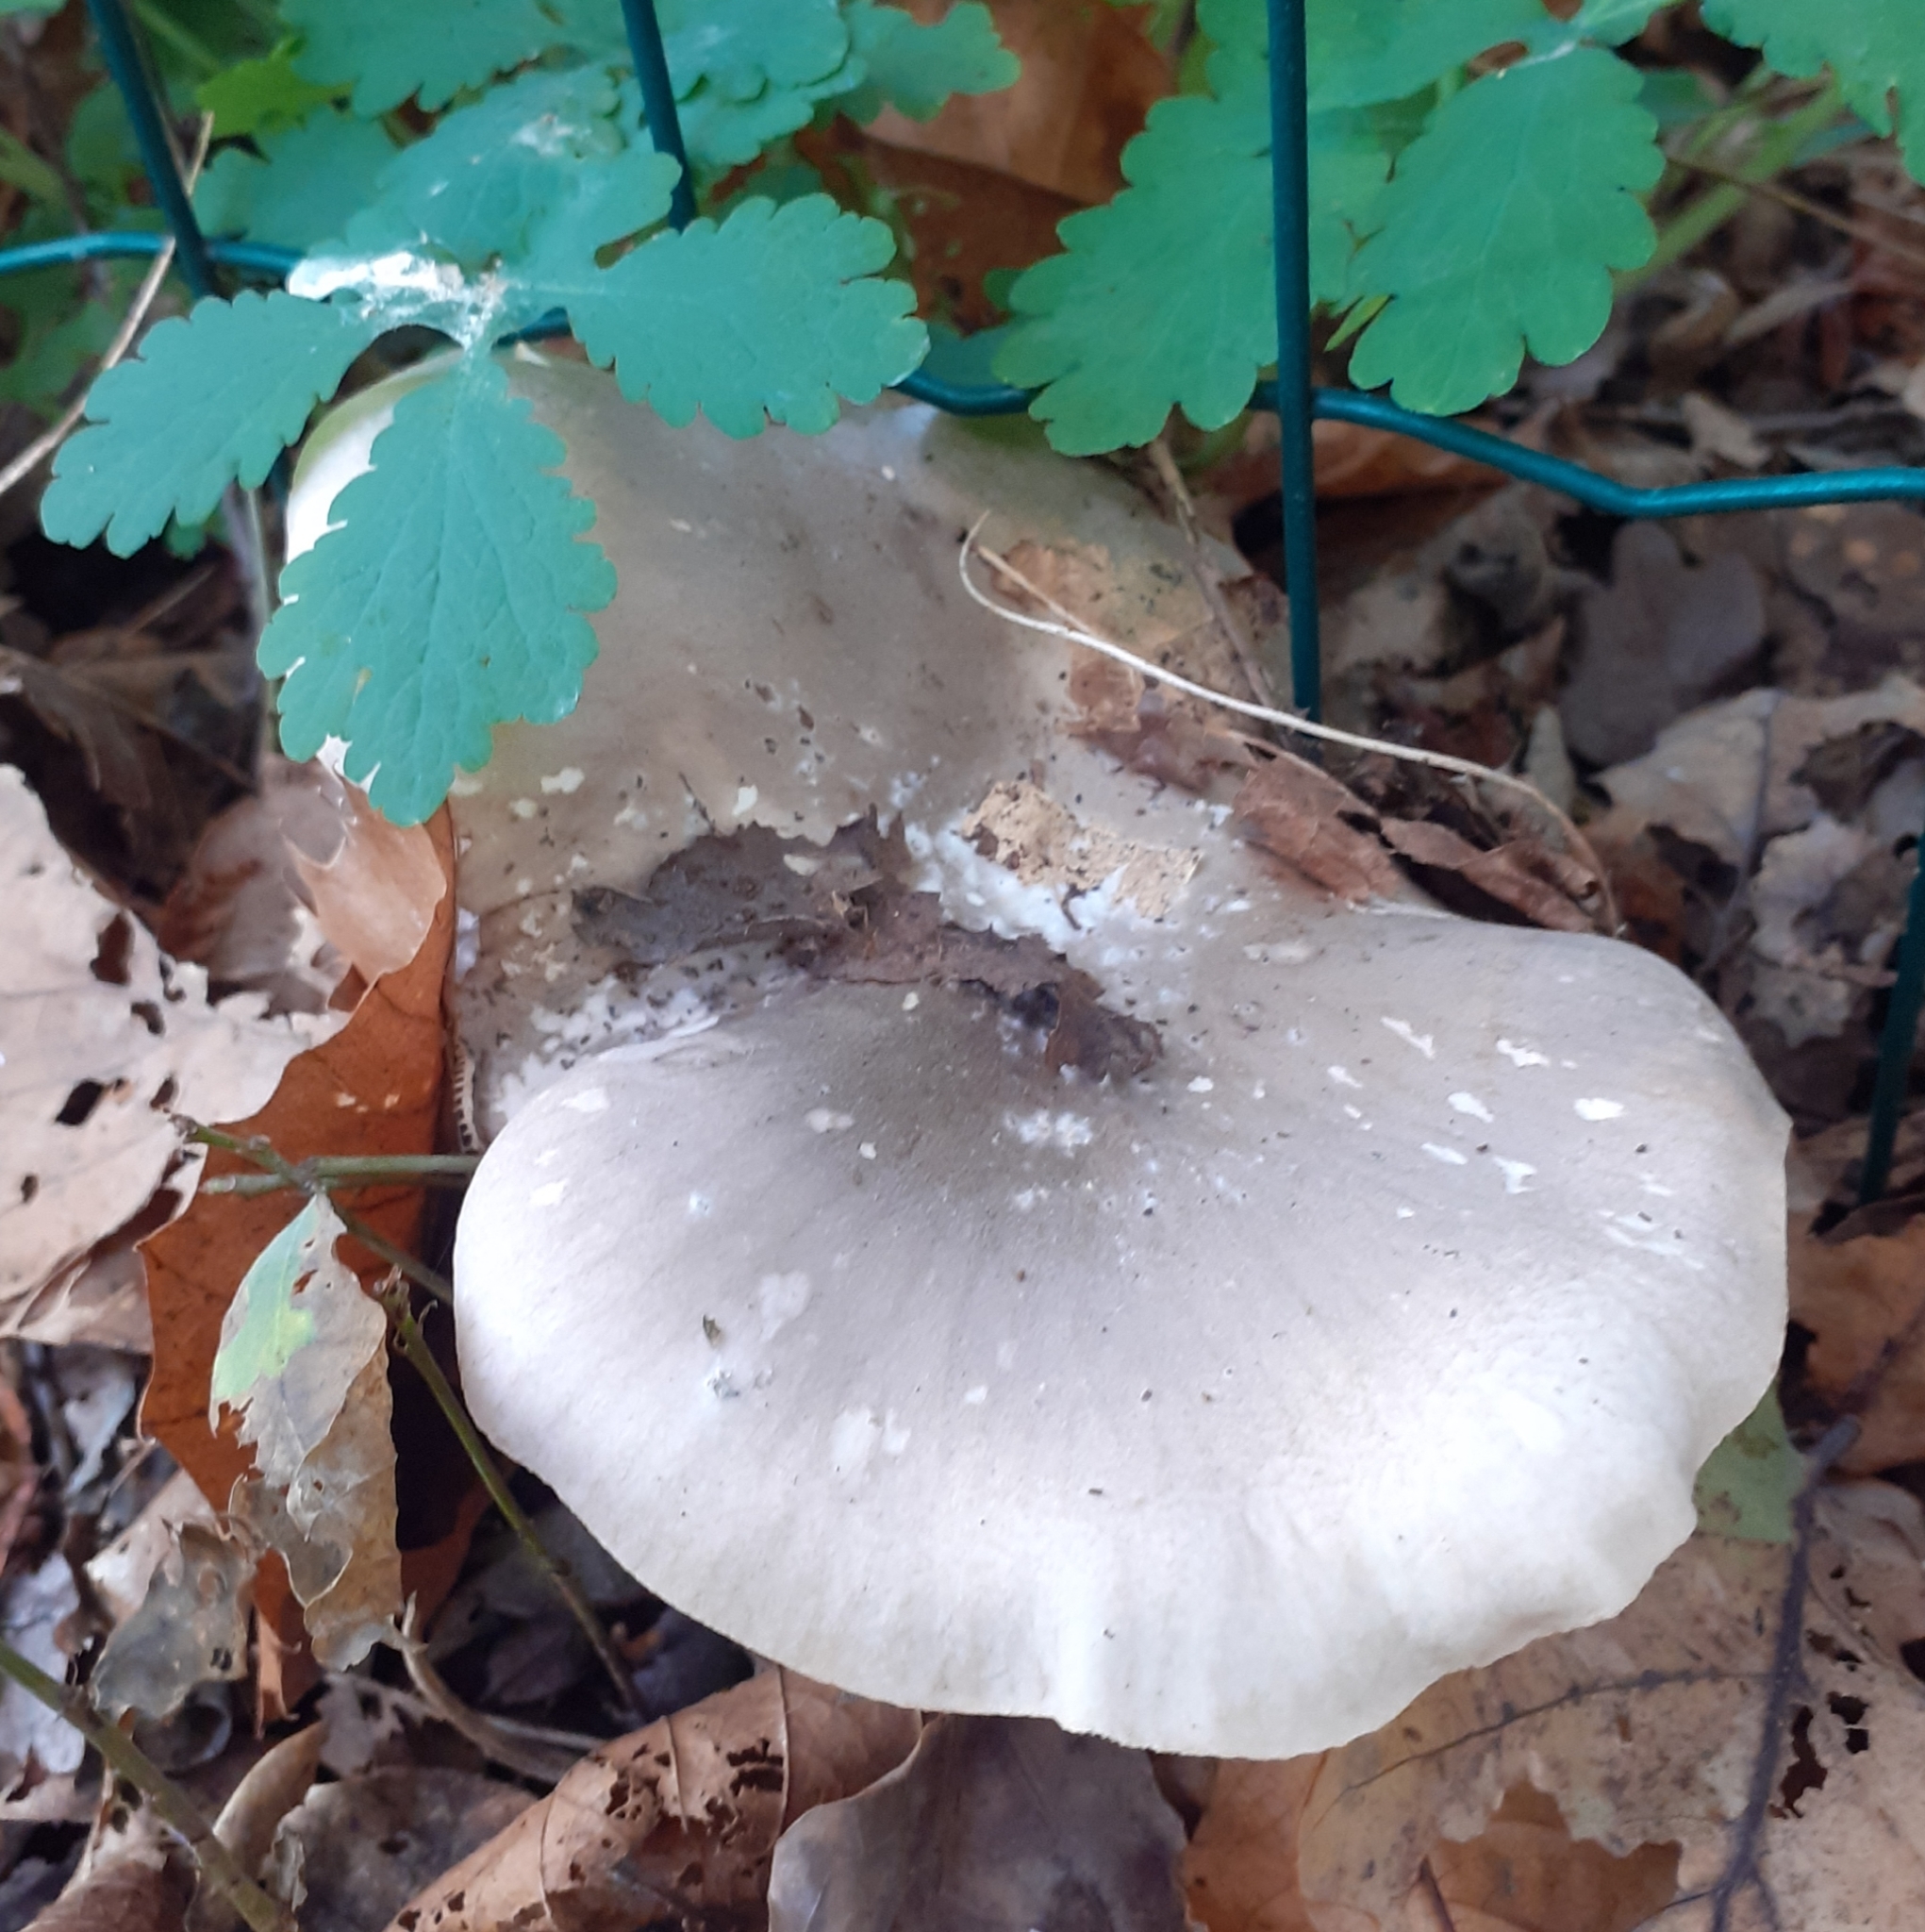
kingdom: Fungi
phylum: Basidiomycota
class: Agaricomycetes
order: Agaricales
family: Tricholomataceae
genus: Clitocybe
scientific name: Clitocybe nebularis
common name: Clouded agaric
